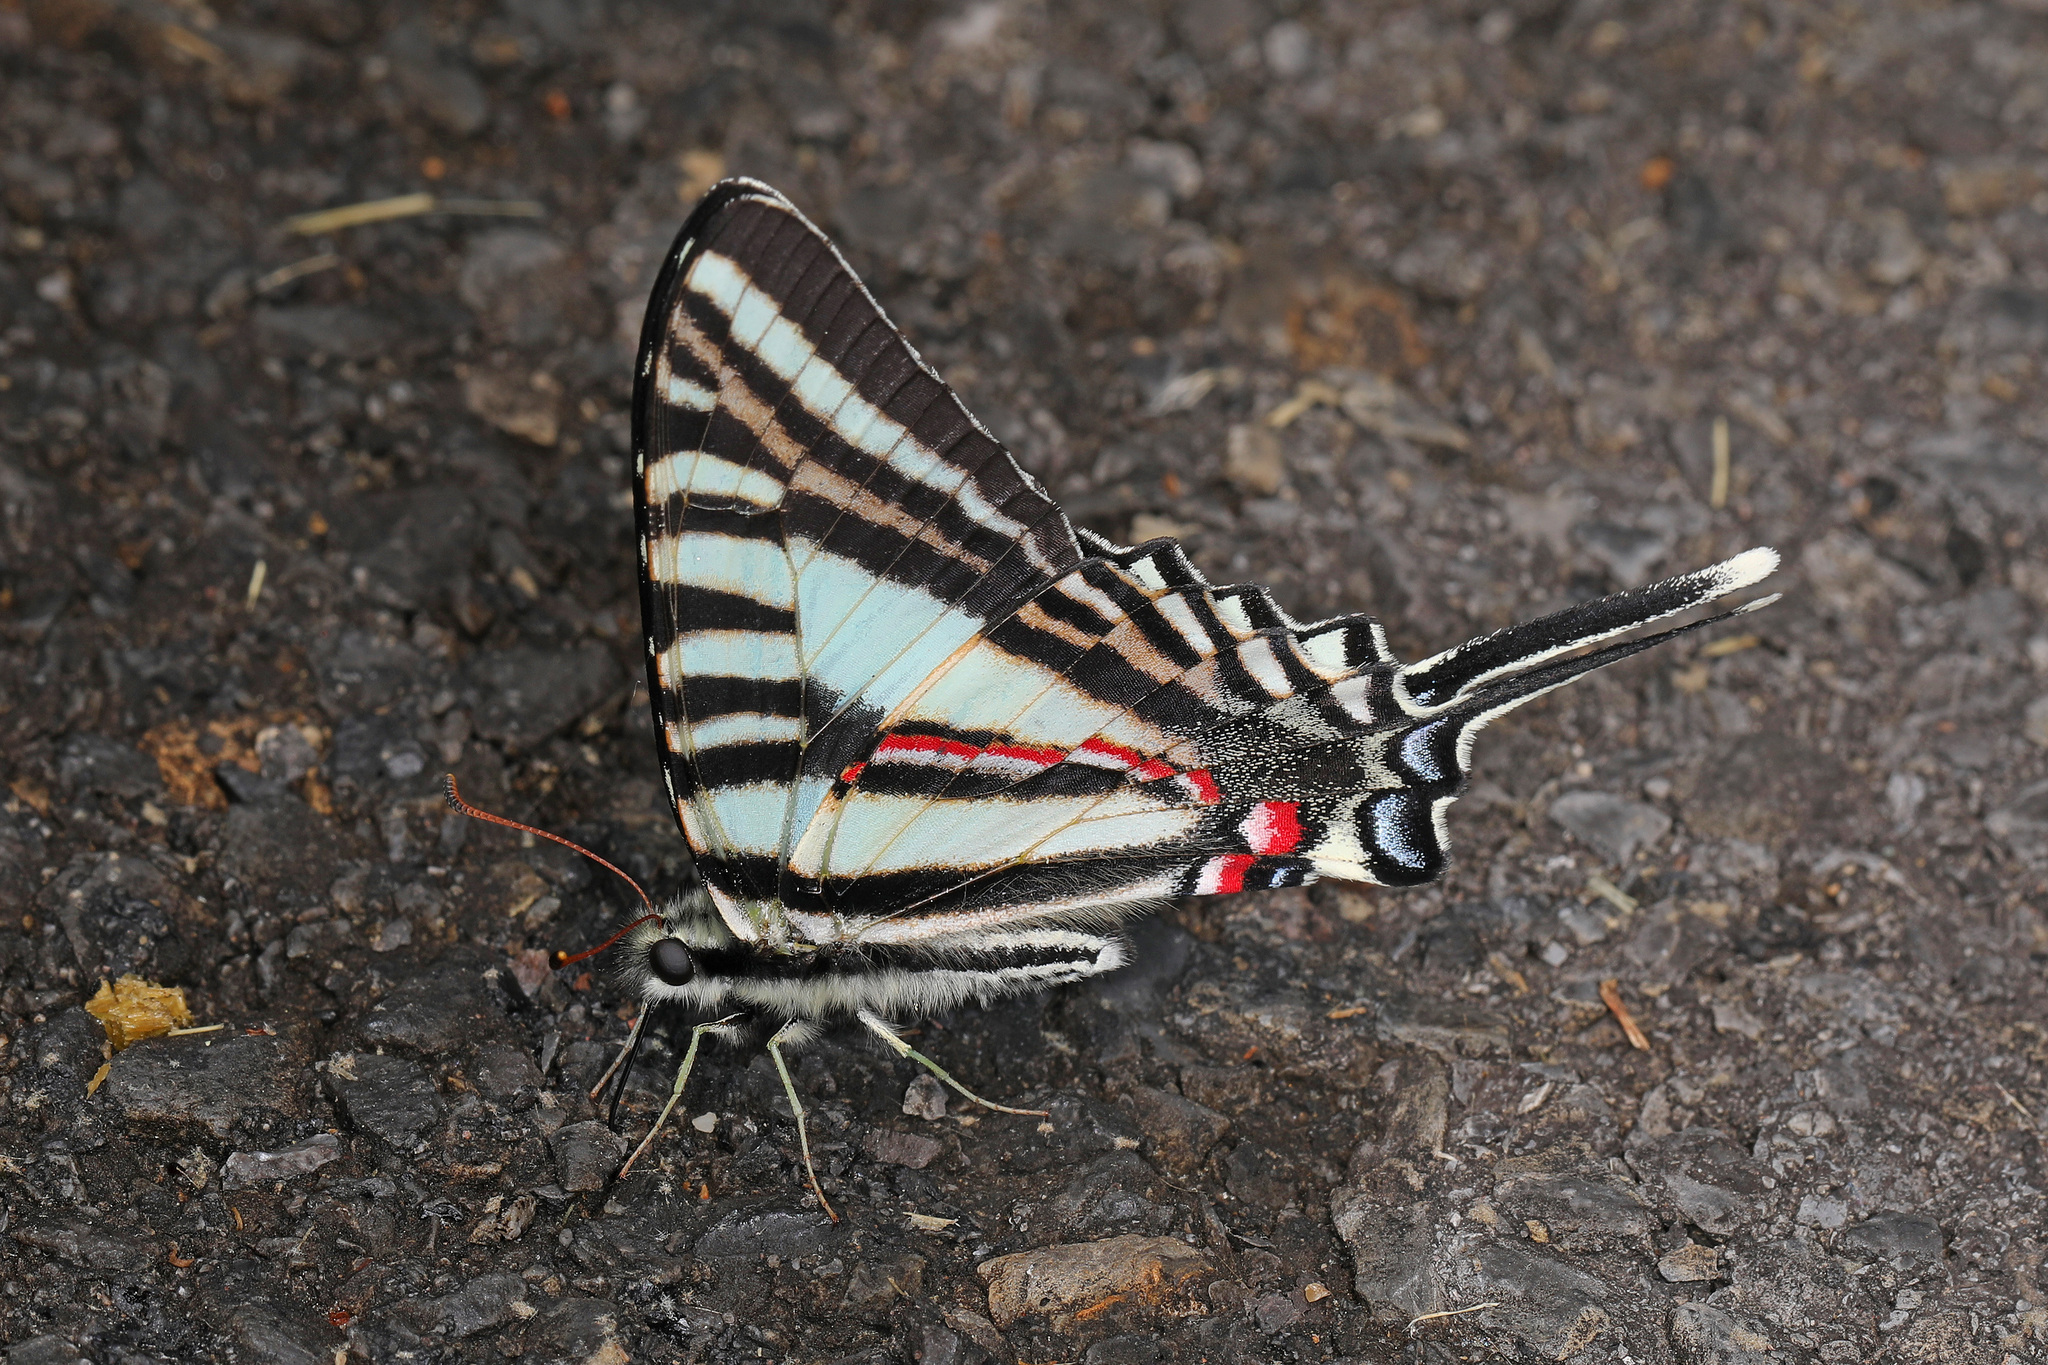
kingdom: Animalia
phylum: Arthropoda
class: Insecta
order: Lepidoptera
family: Papilionidae
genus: Protographium
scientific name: Protographium marcellus
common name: Zebra swallowtail
